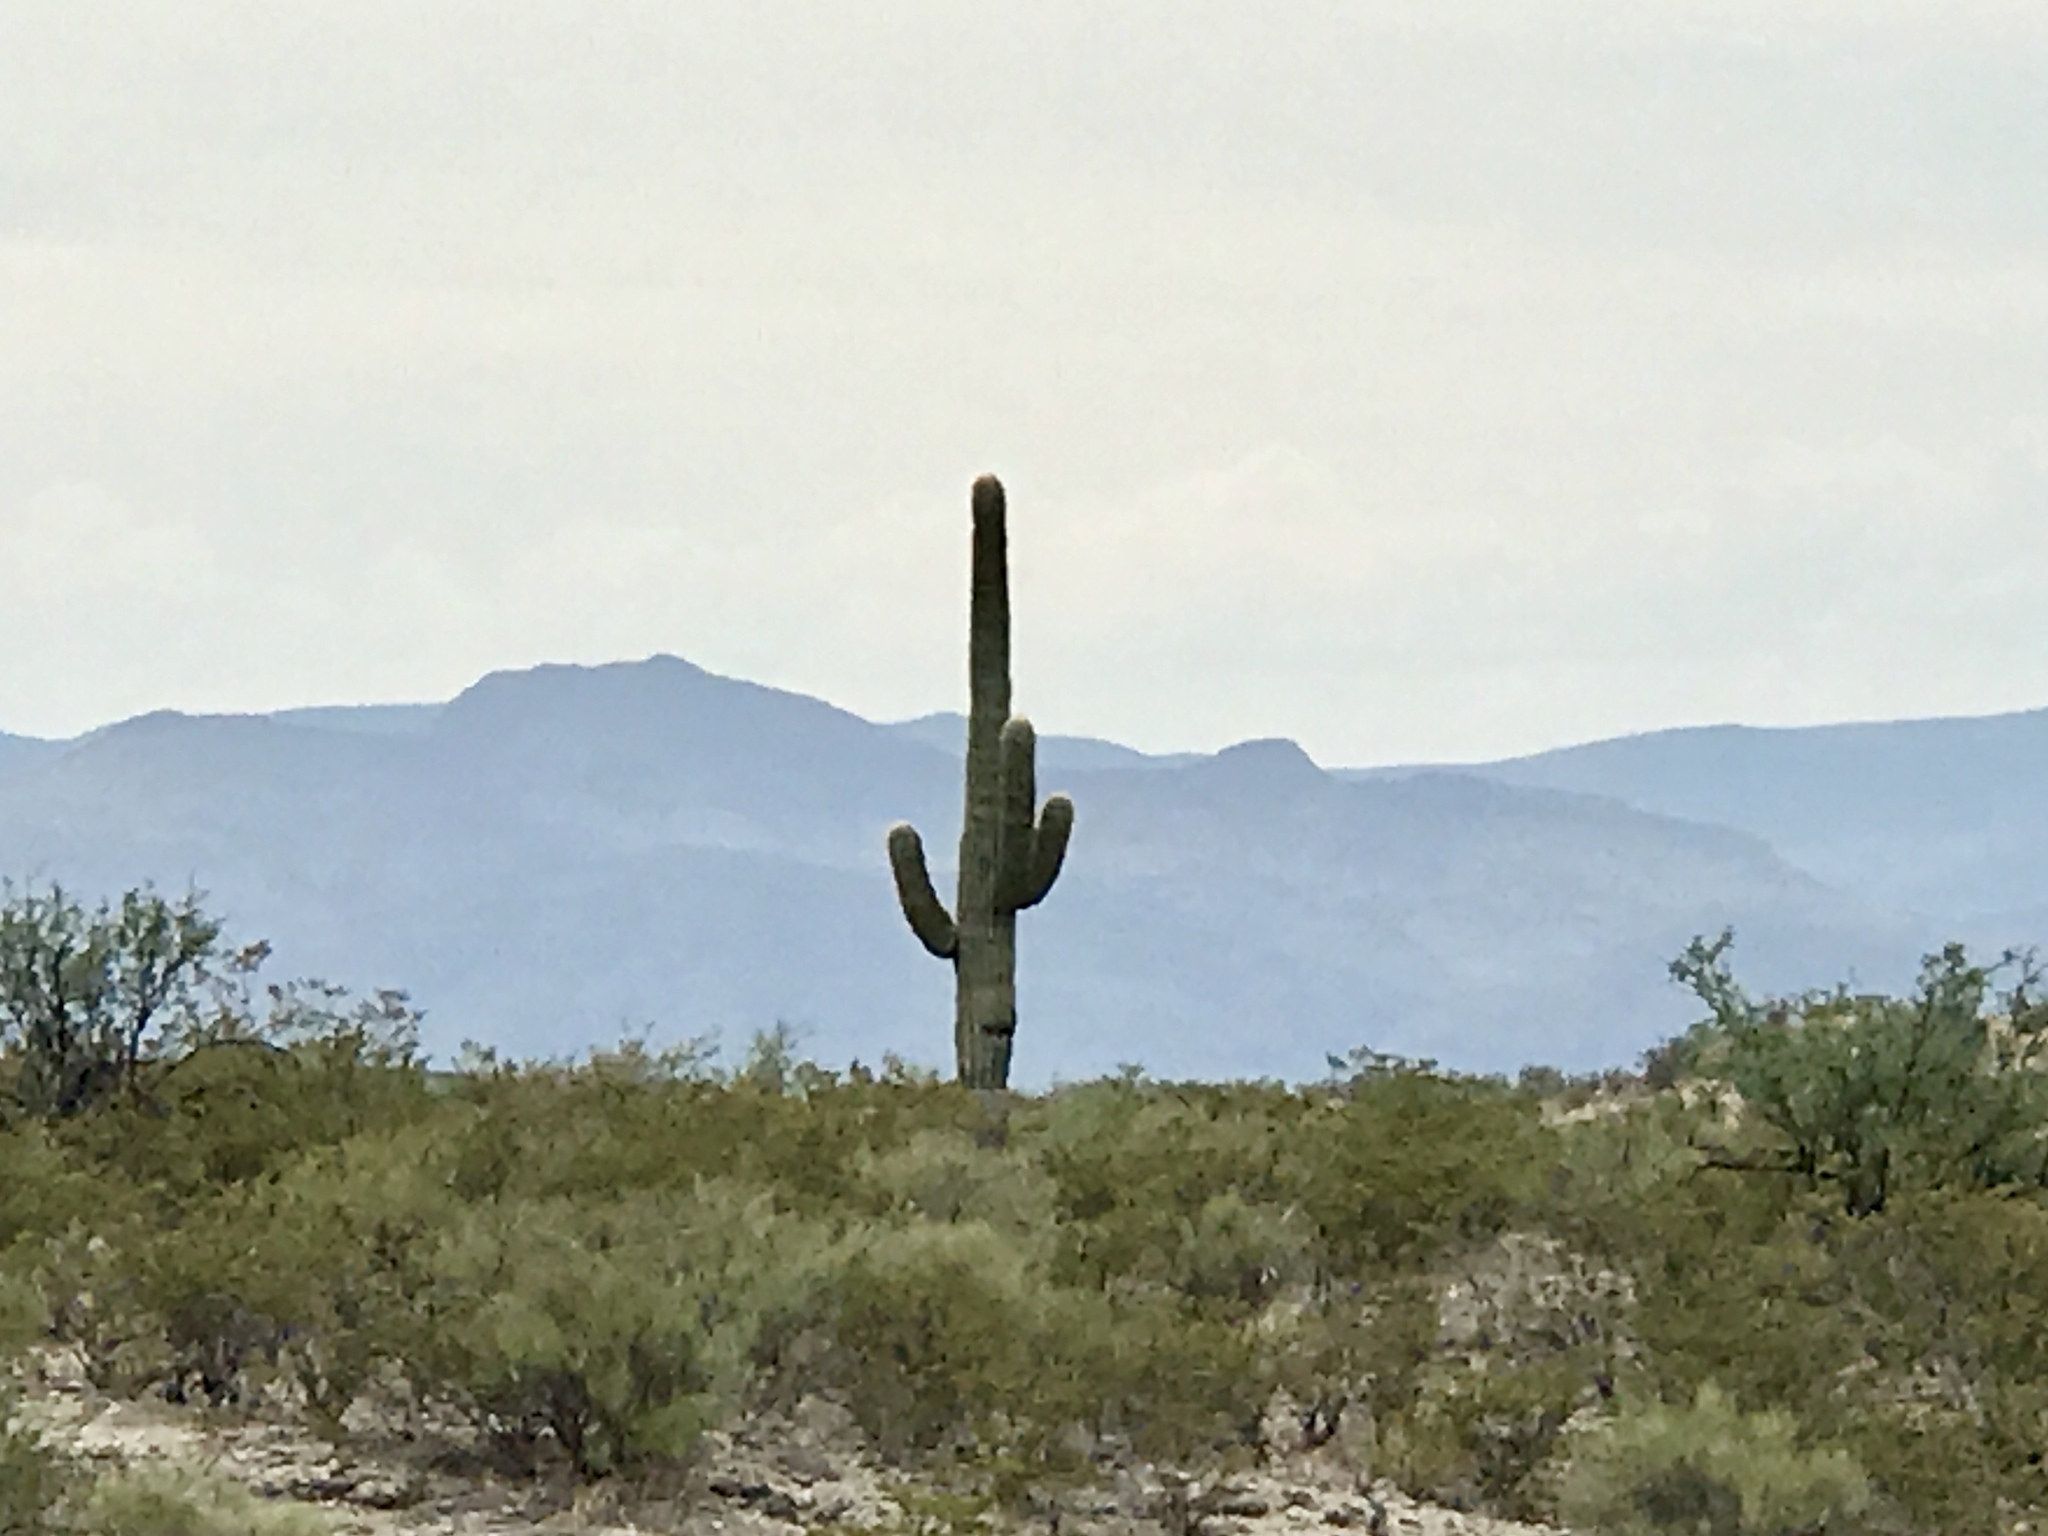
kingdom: Plantae
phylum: Tracheophyta
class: Magnoliopsida
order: Caryophyllales
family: Cactaceae
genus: Carnegiea
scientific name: Carnegiea gigantea
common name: Saguaro
